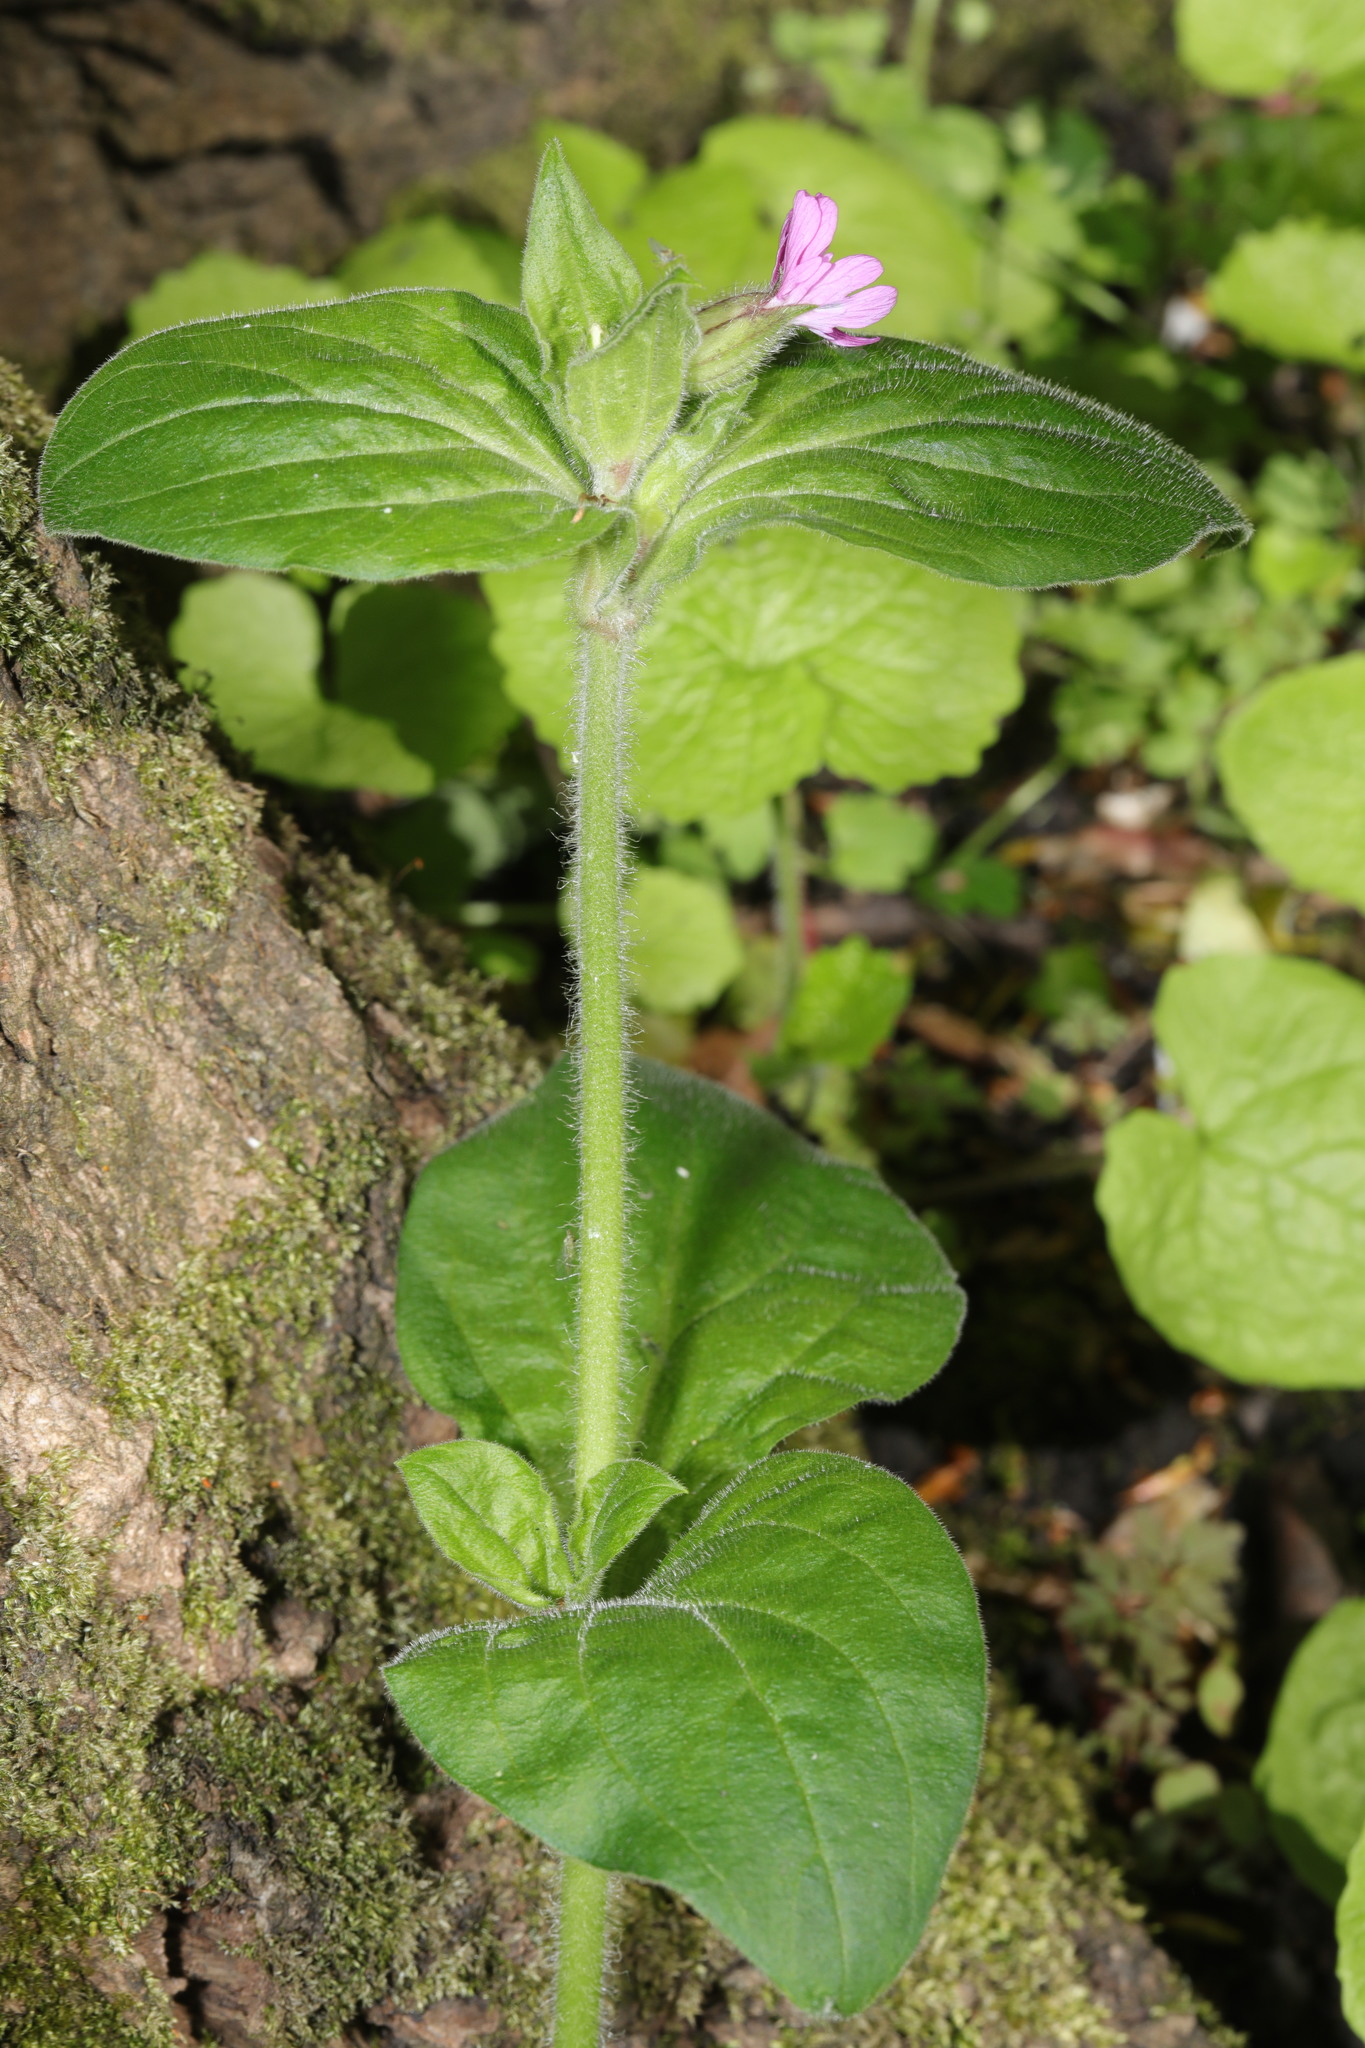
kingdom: Plantae
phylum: Tracheophyta
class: Magnoliopsida
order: Caryophyllales
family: Caryophyllaceae
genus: Silene
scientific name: Silene dioica
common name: Red campion
